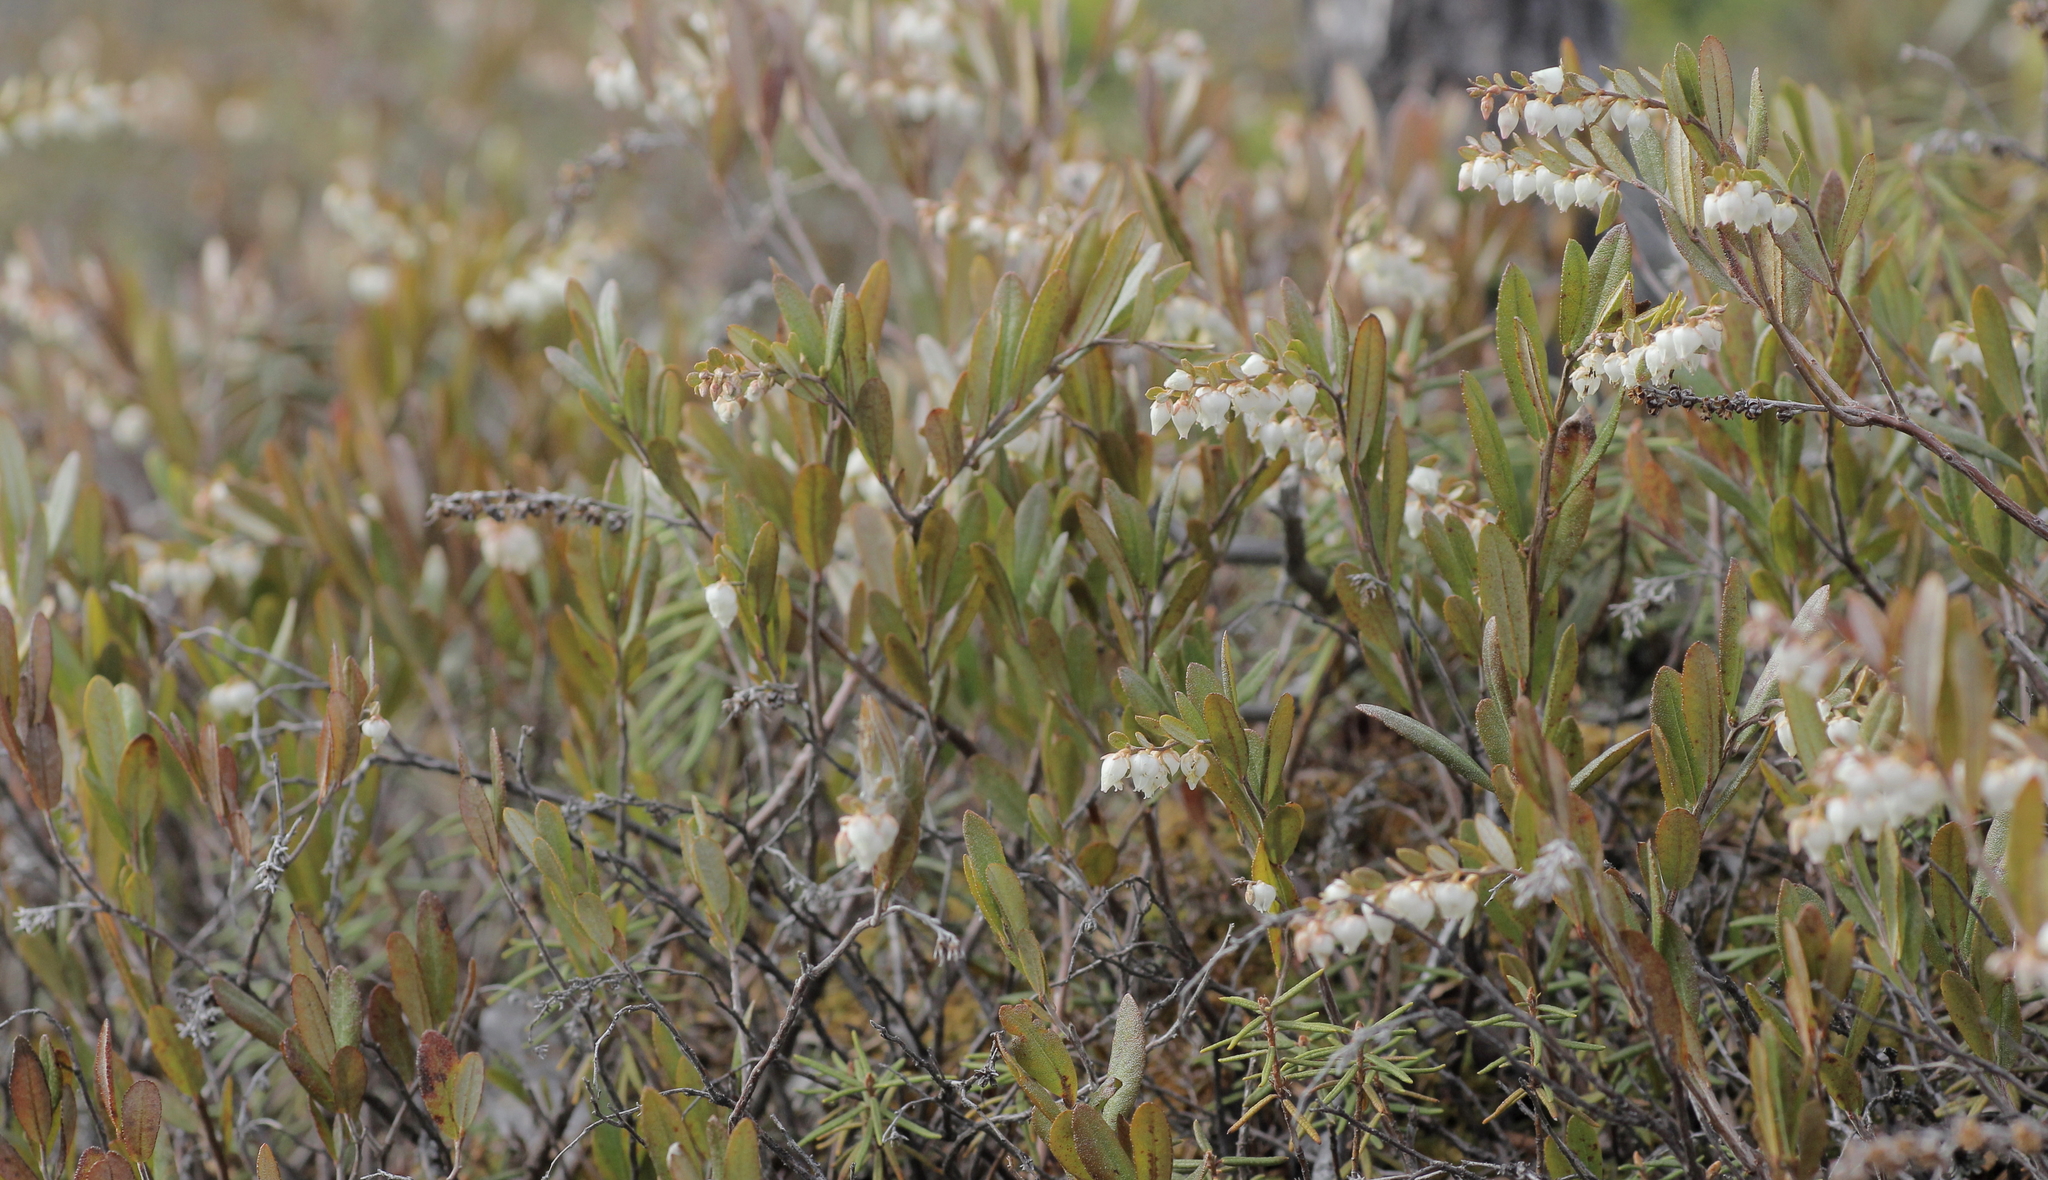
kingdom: Plantae
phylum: Tracheophyta
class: Magnoliopsida
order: Ericales
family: Ericaceae
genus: Chamaedaphne
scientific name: Chamaedaphne calyculata
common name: Leatherleaf
